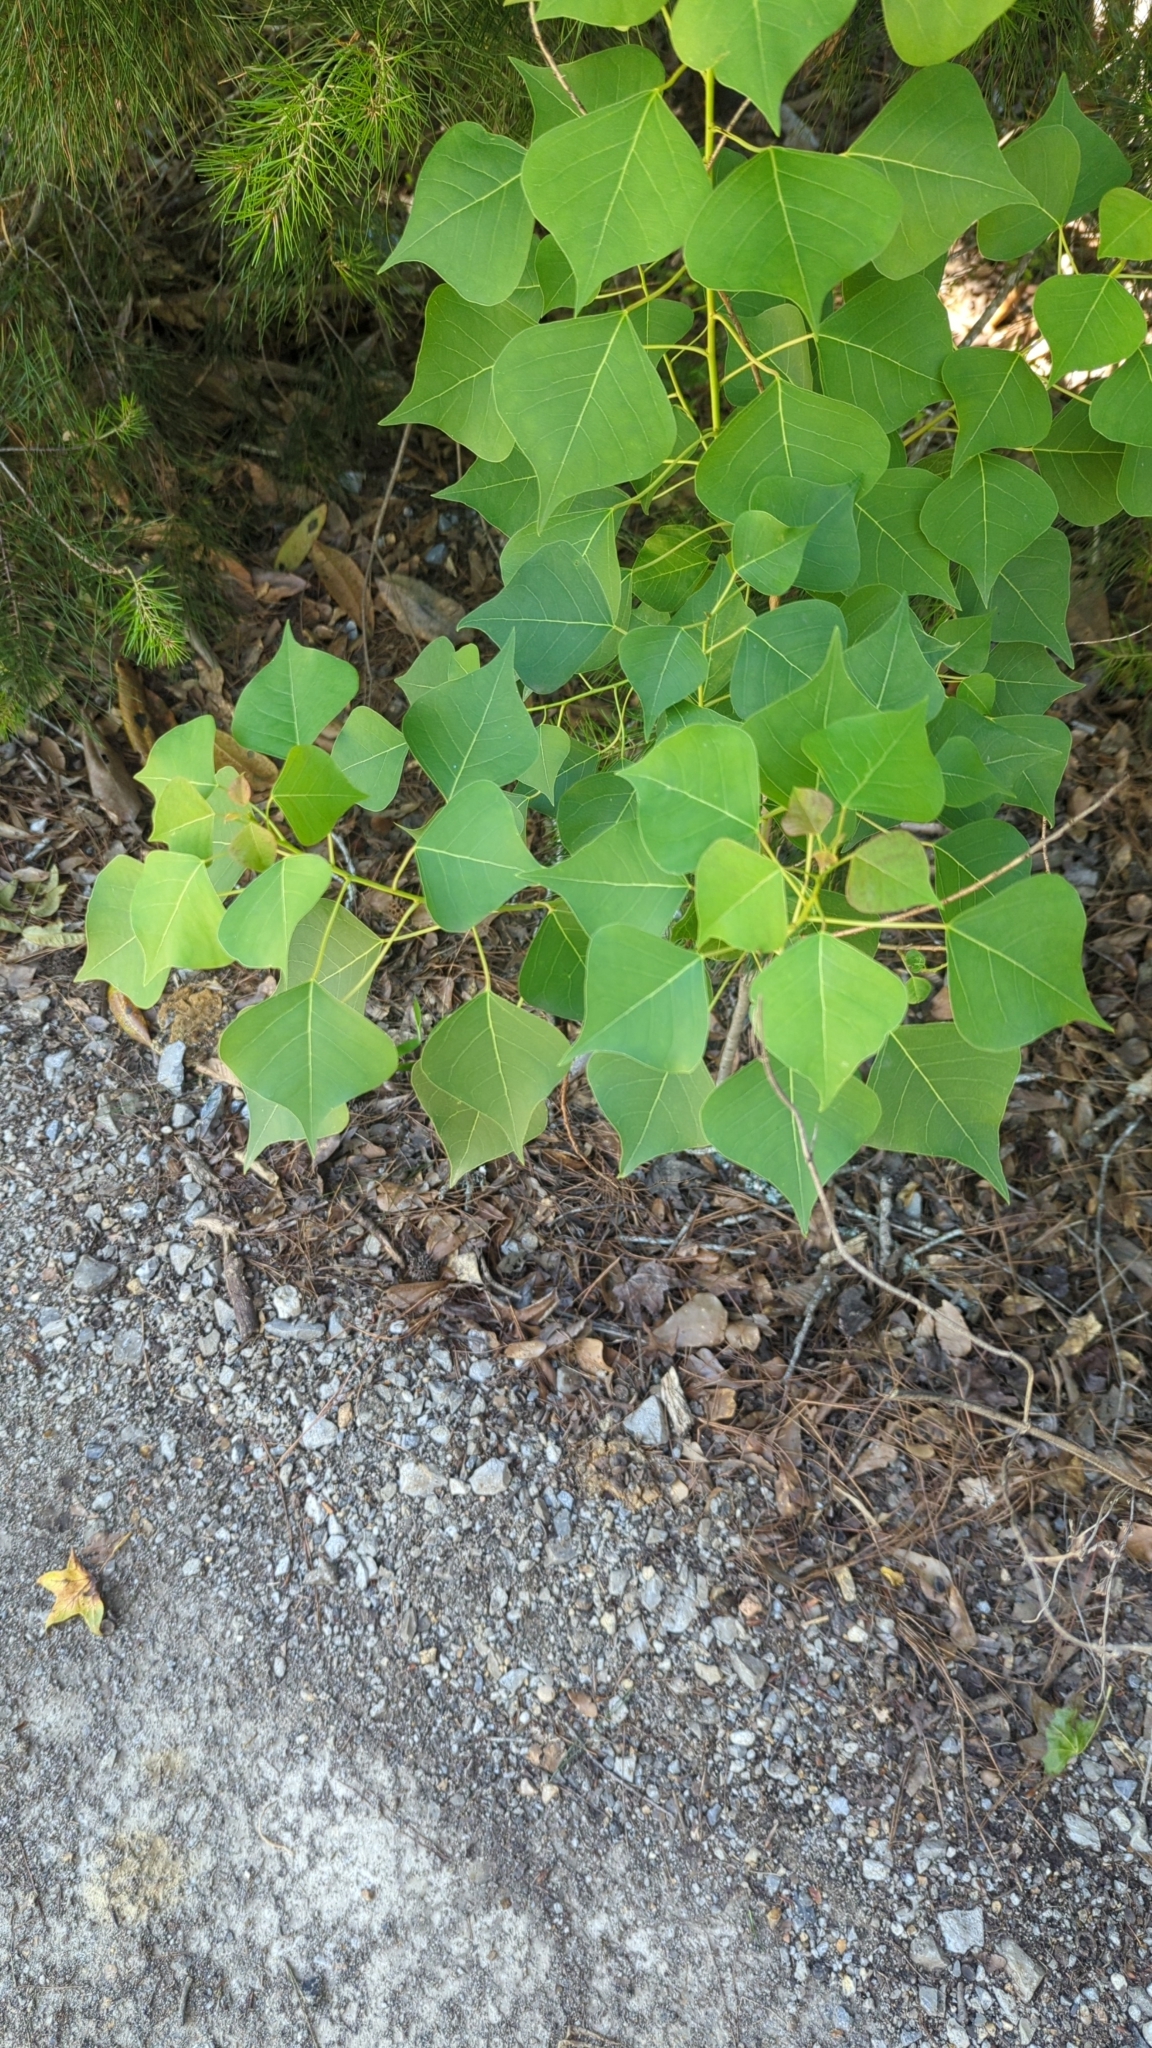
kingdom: Plantae
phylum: Tracheophyta
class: Magnoliopsida
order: Malpighiales
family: Euphorbiaceae
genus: Triadica
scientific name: Triadica sebifera
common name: Chinese tallow
